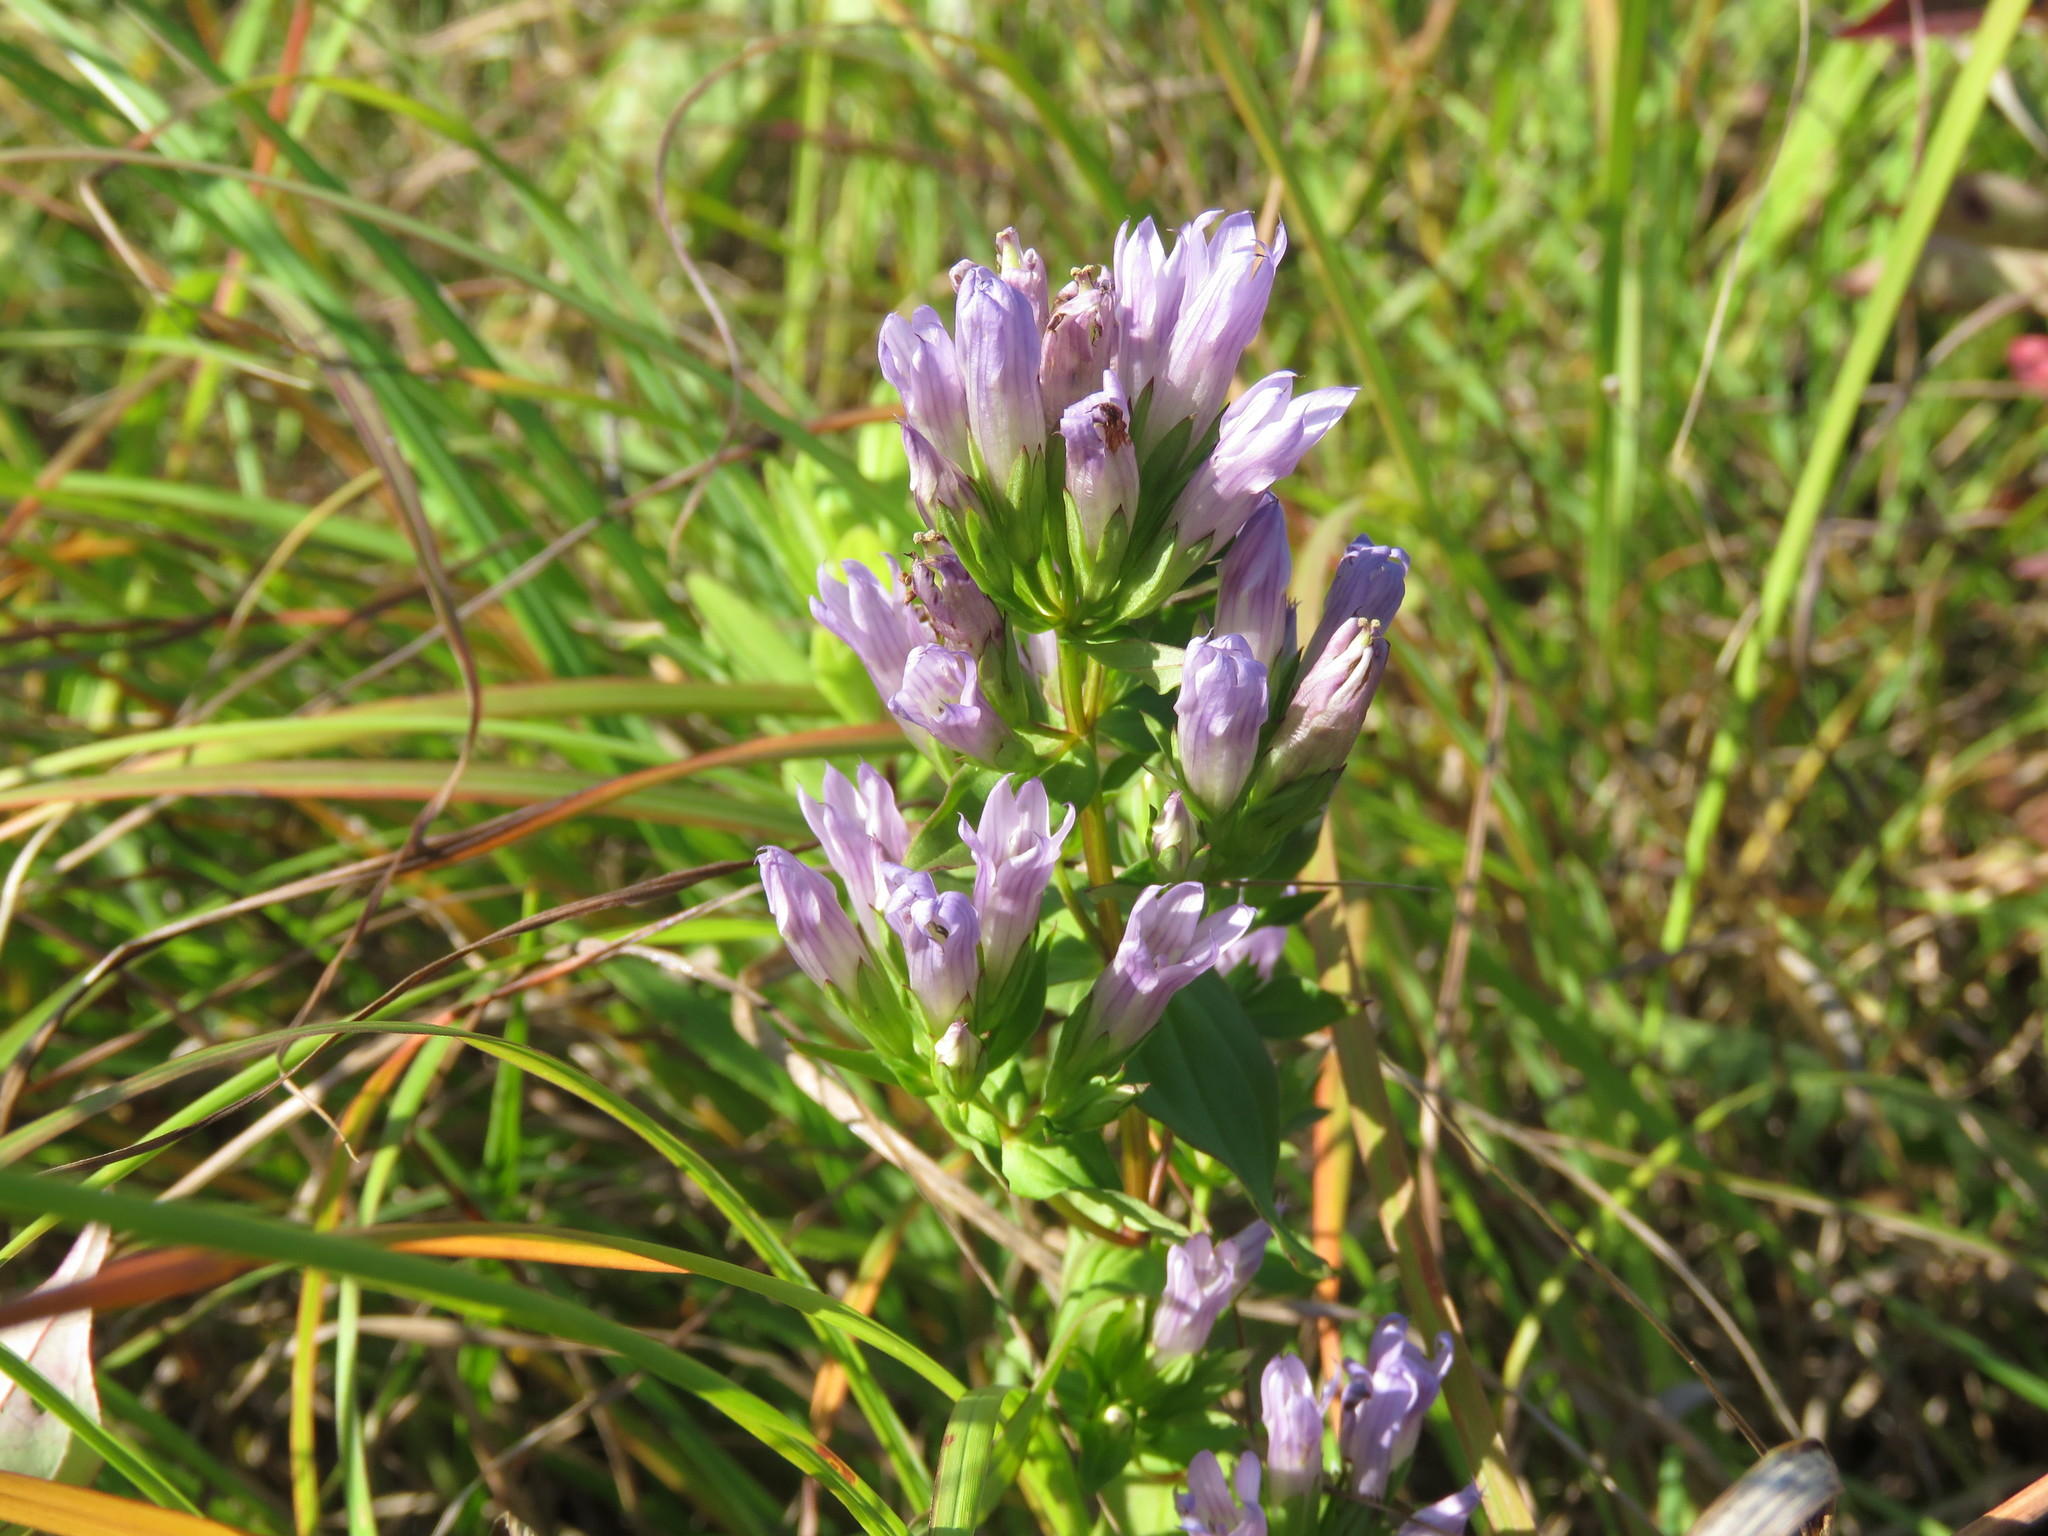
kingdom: Plantae
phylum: Tracheophyta
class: Magnoliopsida
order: Gentianales
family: Gentianaceae
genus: Gentianella
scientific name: Gentianella quinquefolia
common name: Agueweed
